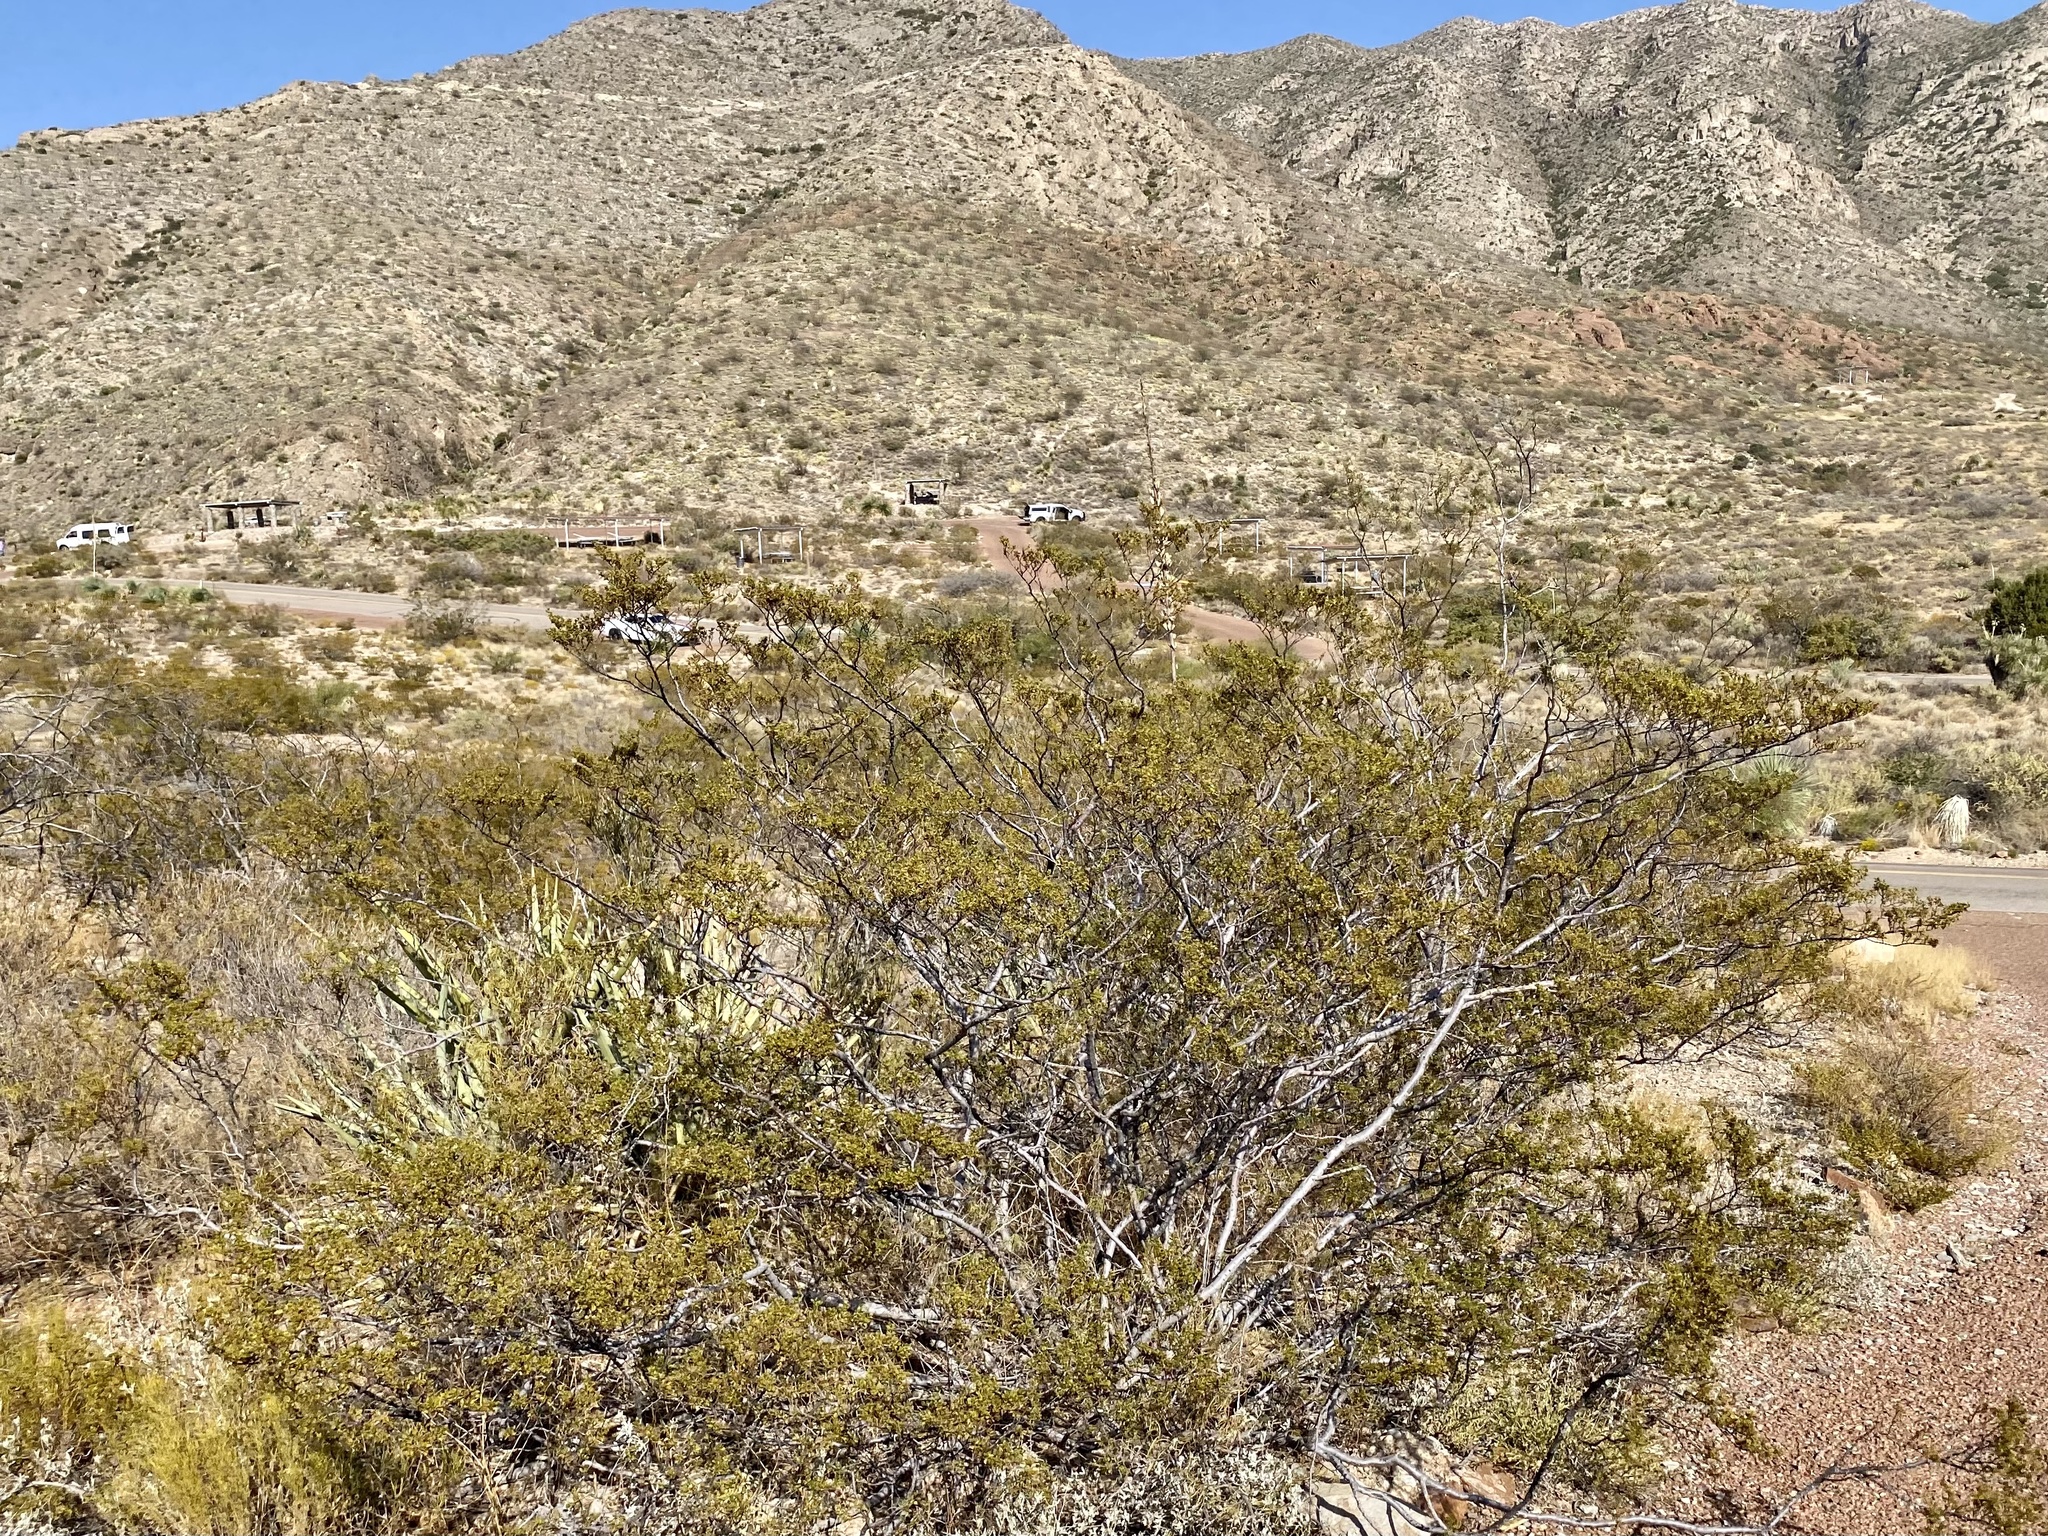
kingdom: Plantae
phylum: Tracheophyta
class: Magnoliopsida
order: Zygophyllales
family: Zygophyllaceae
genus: Larrea
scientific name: Larrea tridentata
